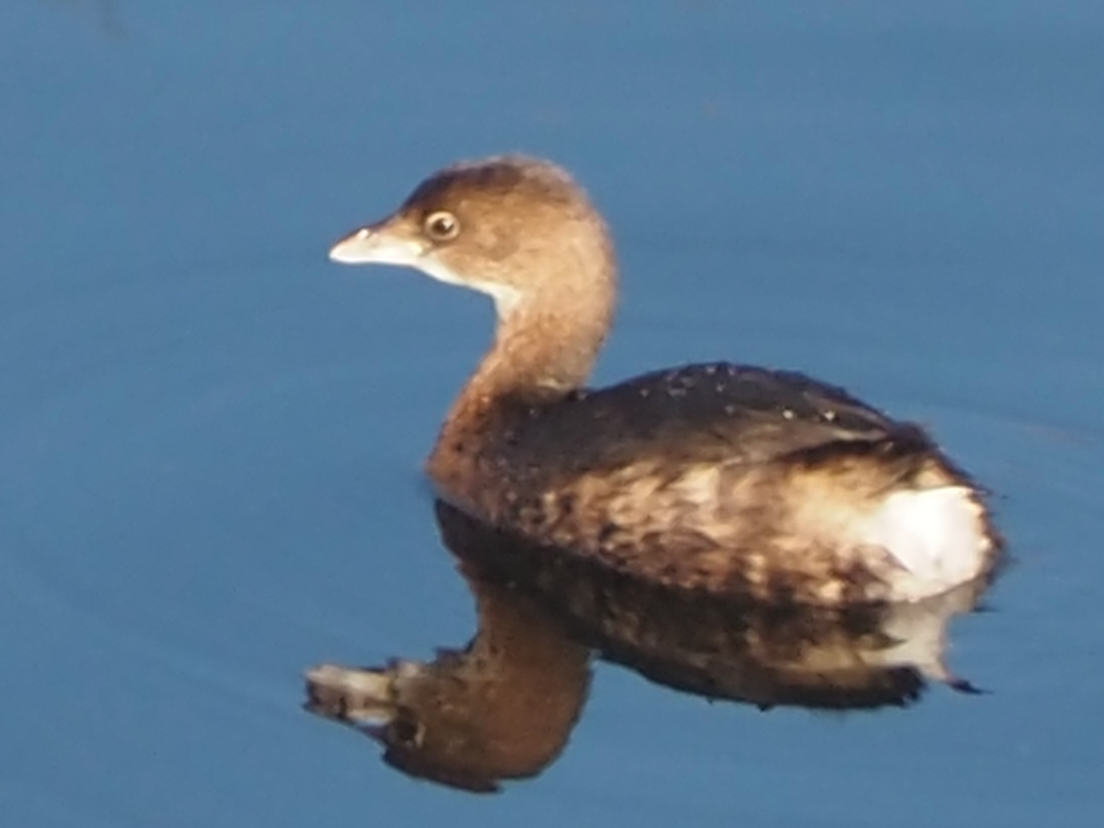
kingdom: Animalia
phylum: Chordata
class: Aves
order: Podicipediformes
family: Podicipedidae
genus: Podilymbus
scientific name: Podilymbus podiceps
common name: Pied-billed grebe
